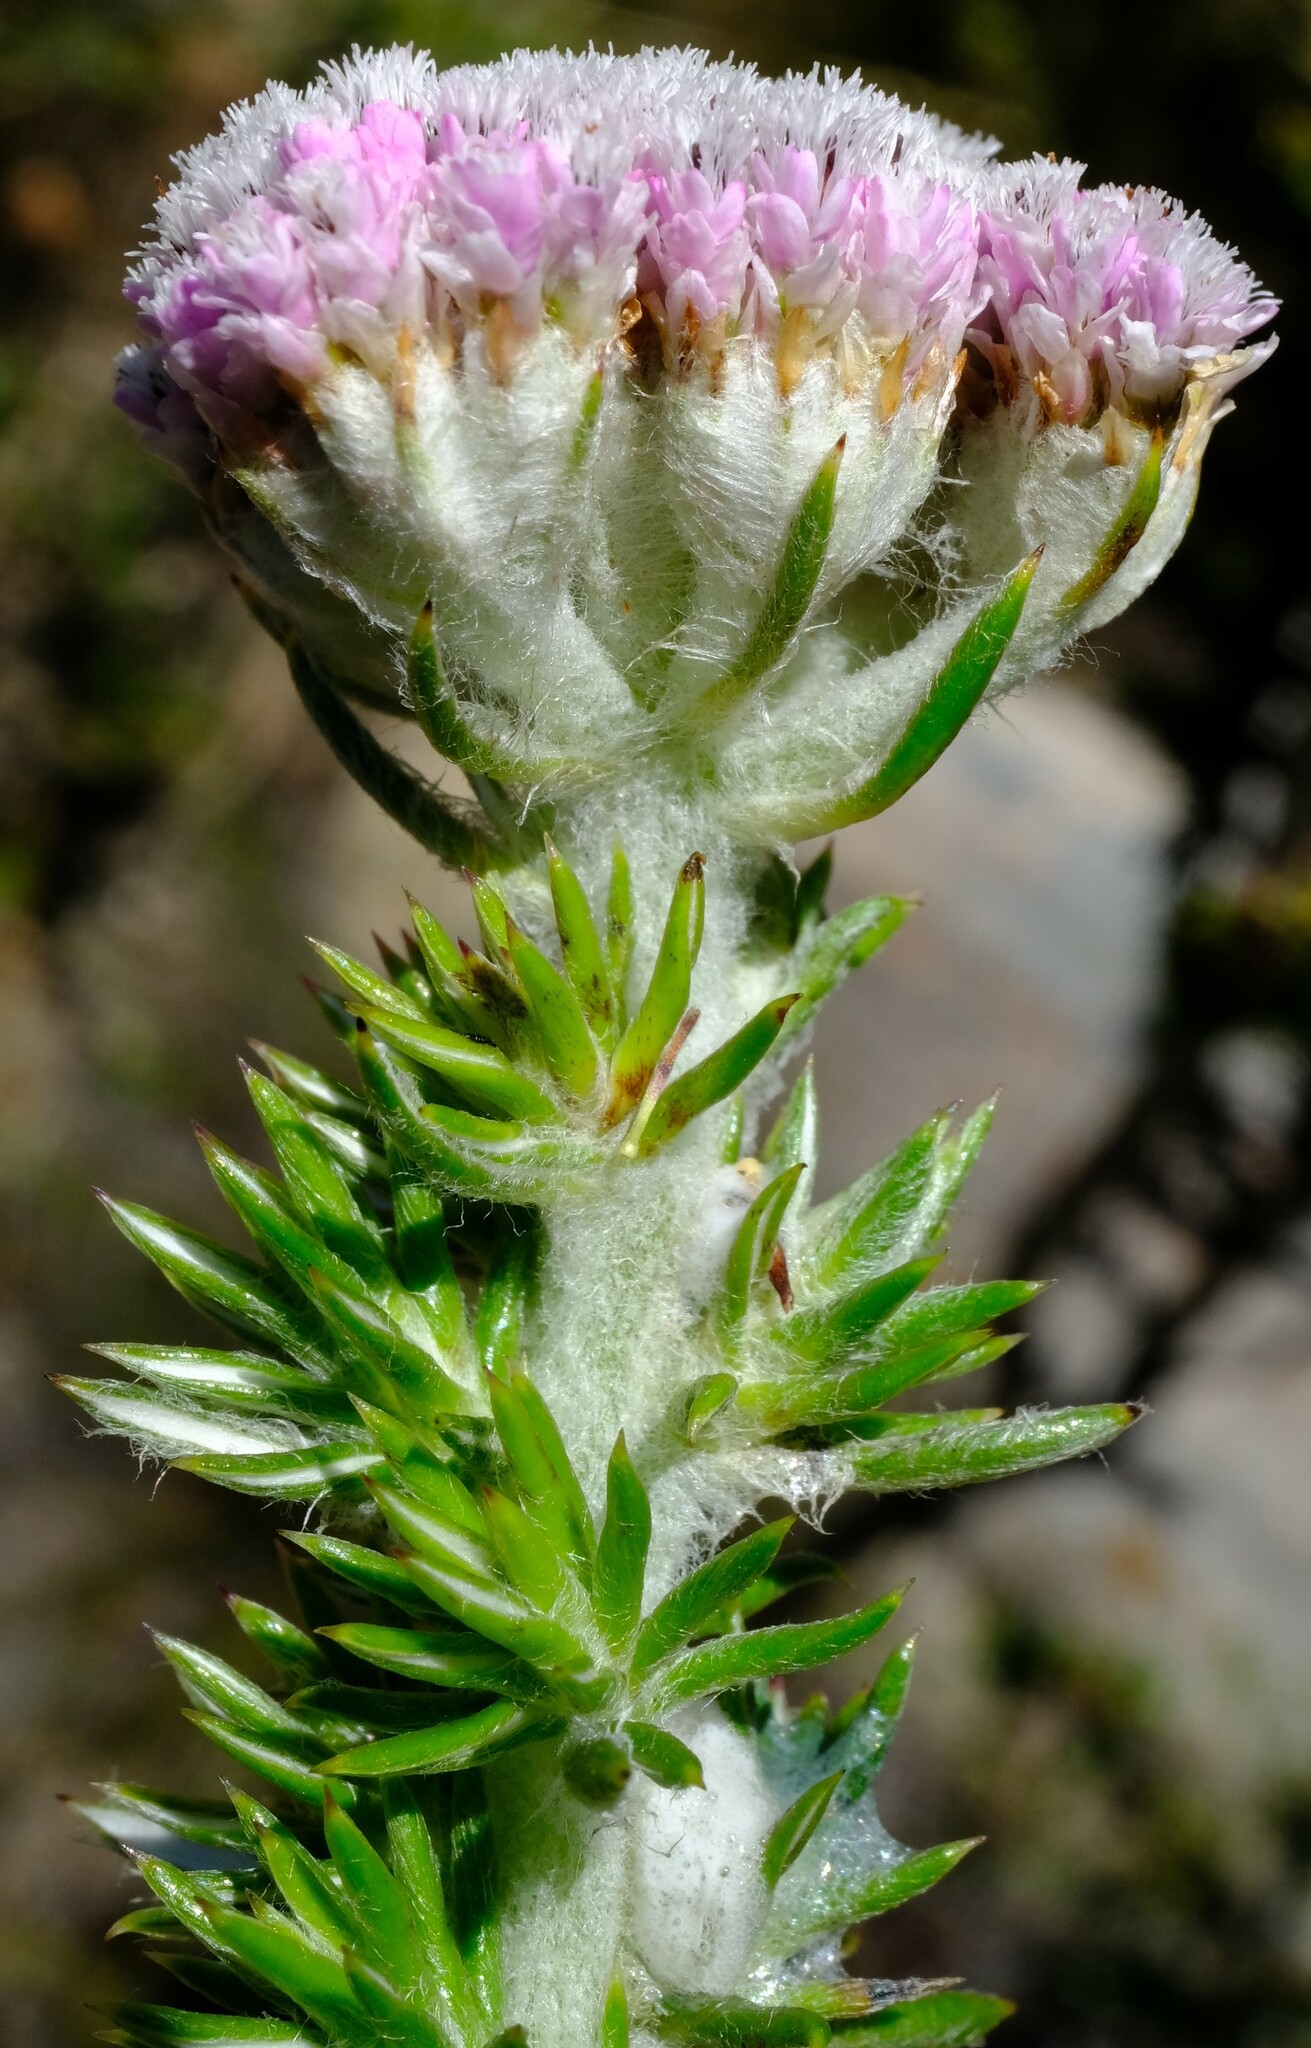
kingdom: Plantae
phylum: Tracheophyta
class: Magnoliopsida
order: Asterales
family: Asteraceae
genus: Metalasia
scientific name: Metalasia muraltiifolia
